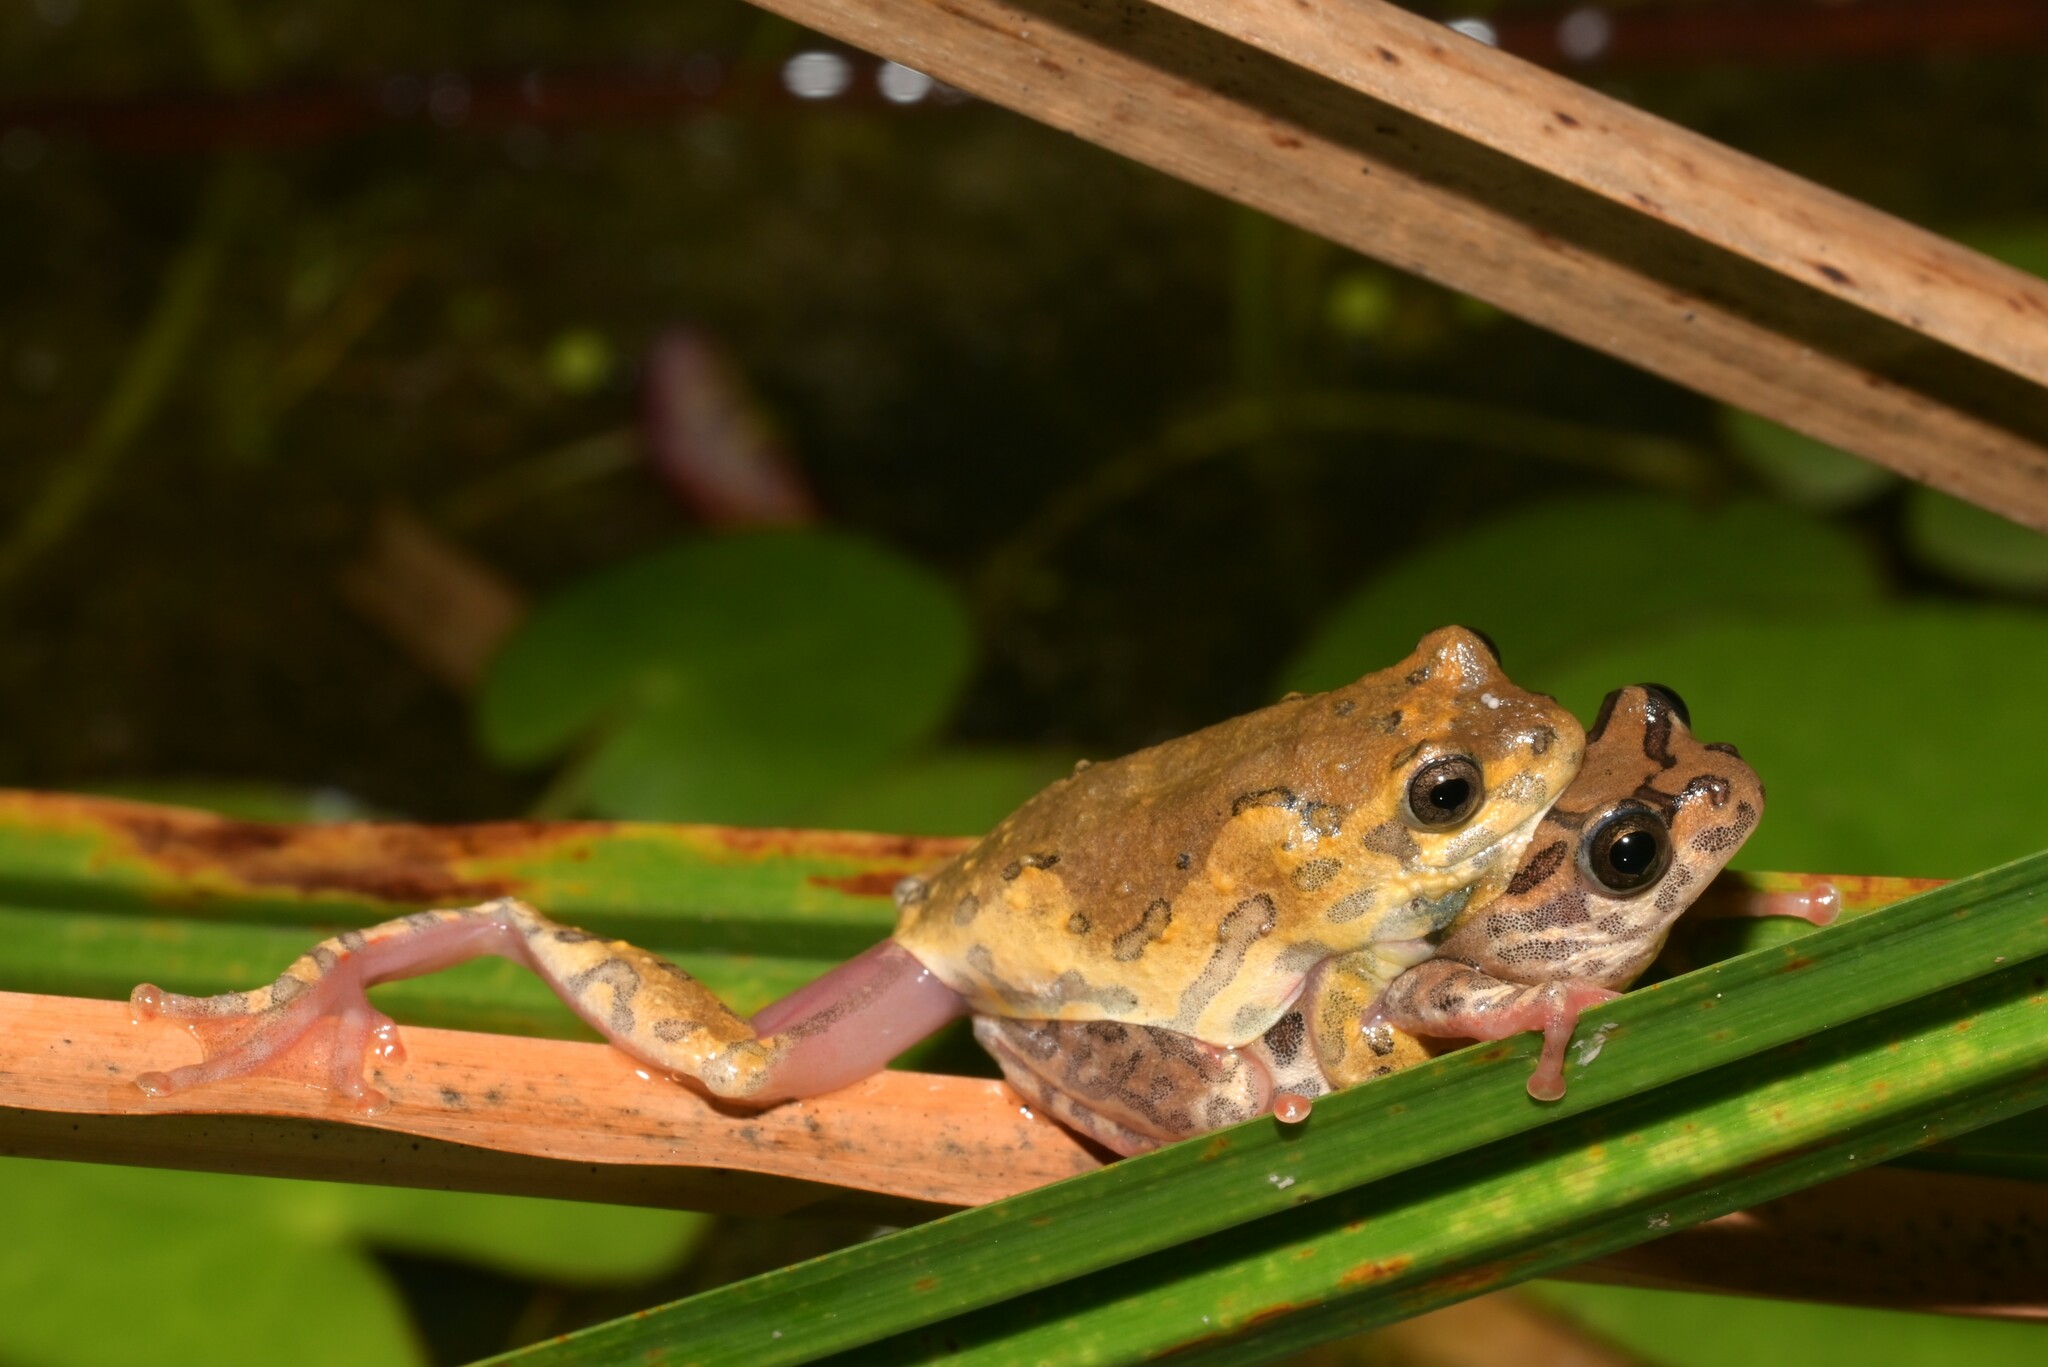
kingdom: Animalia
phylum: Chordata
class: Amphibia
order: Anura
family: Hyperoliidae
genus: Hyperolius
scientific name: Hyperolius glandicolor
